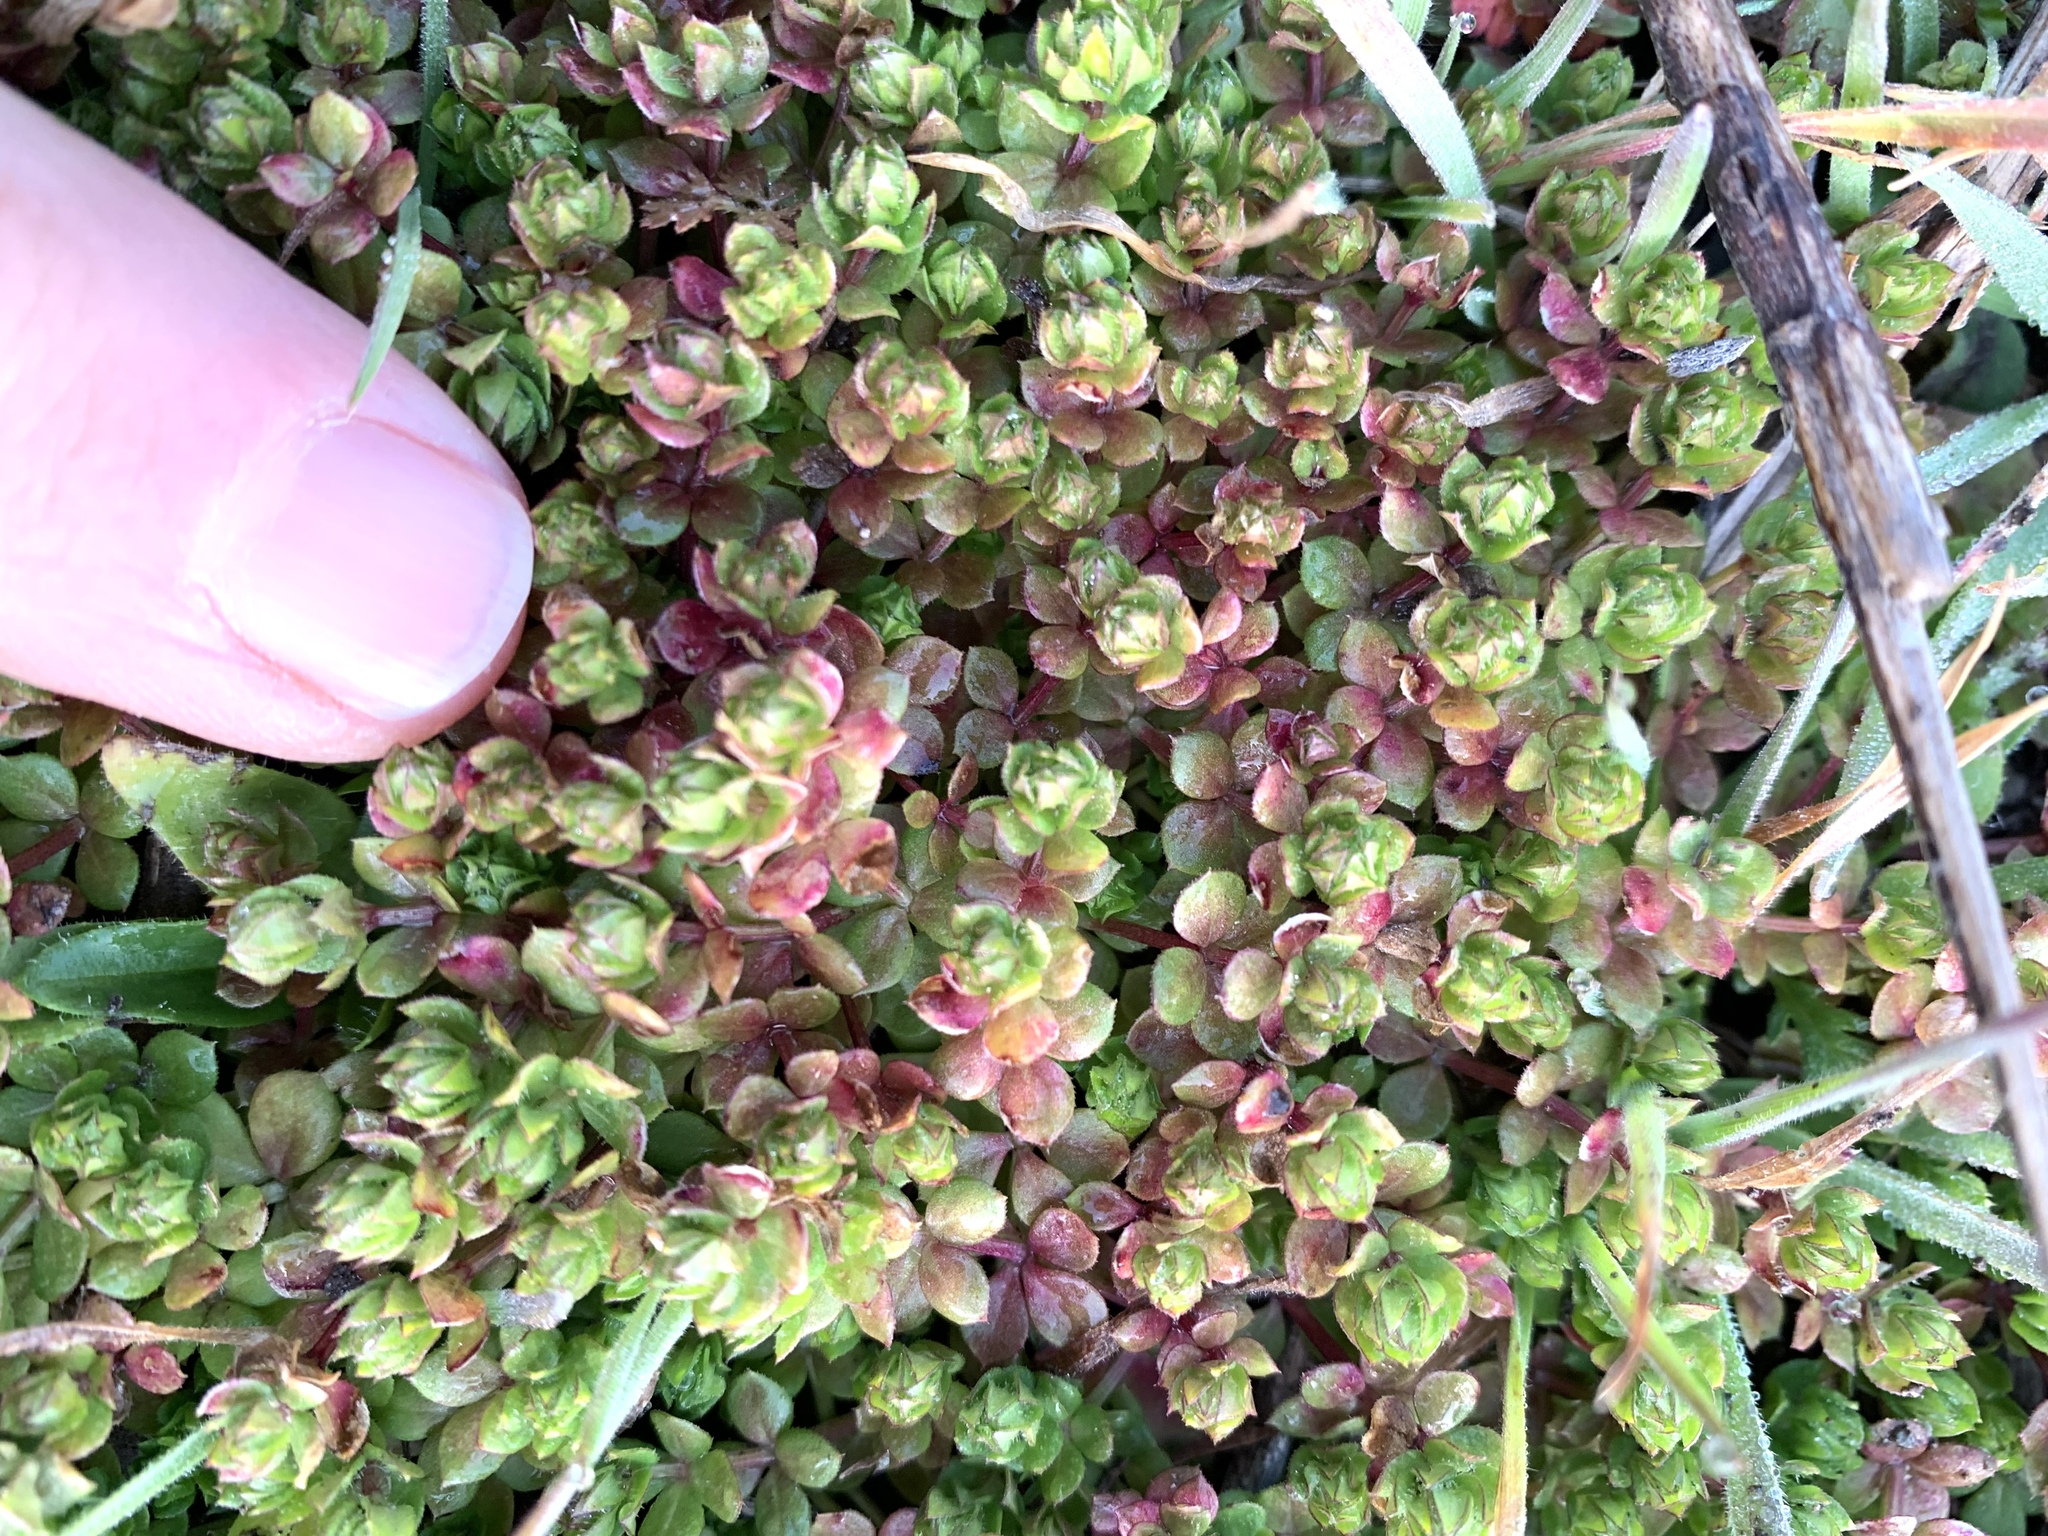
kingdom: Plantae
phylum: Tracheophyta
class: Magnoliopsida
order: Gentianales
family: Rubiaceae
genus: Sherardia
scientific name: Sherardia arvensis
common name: Field madder
